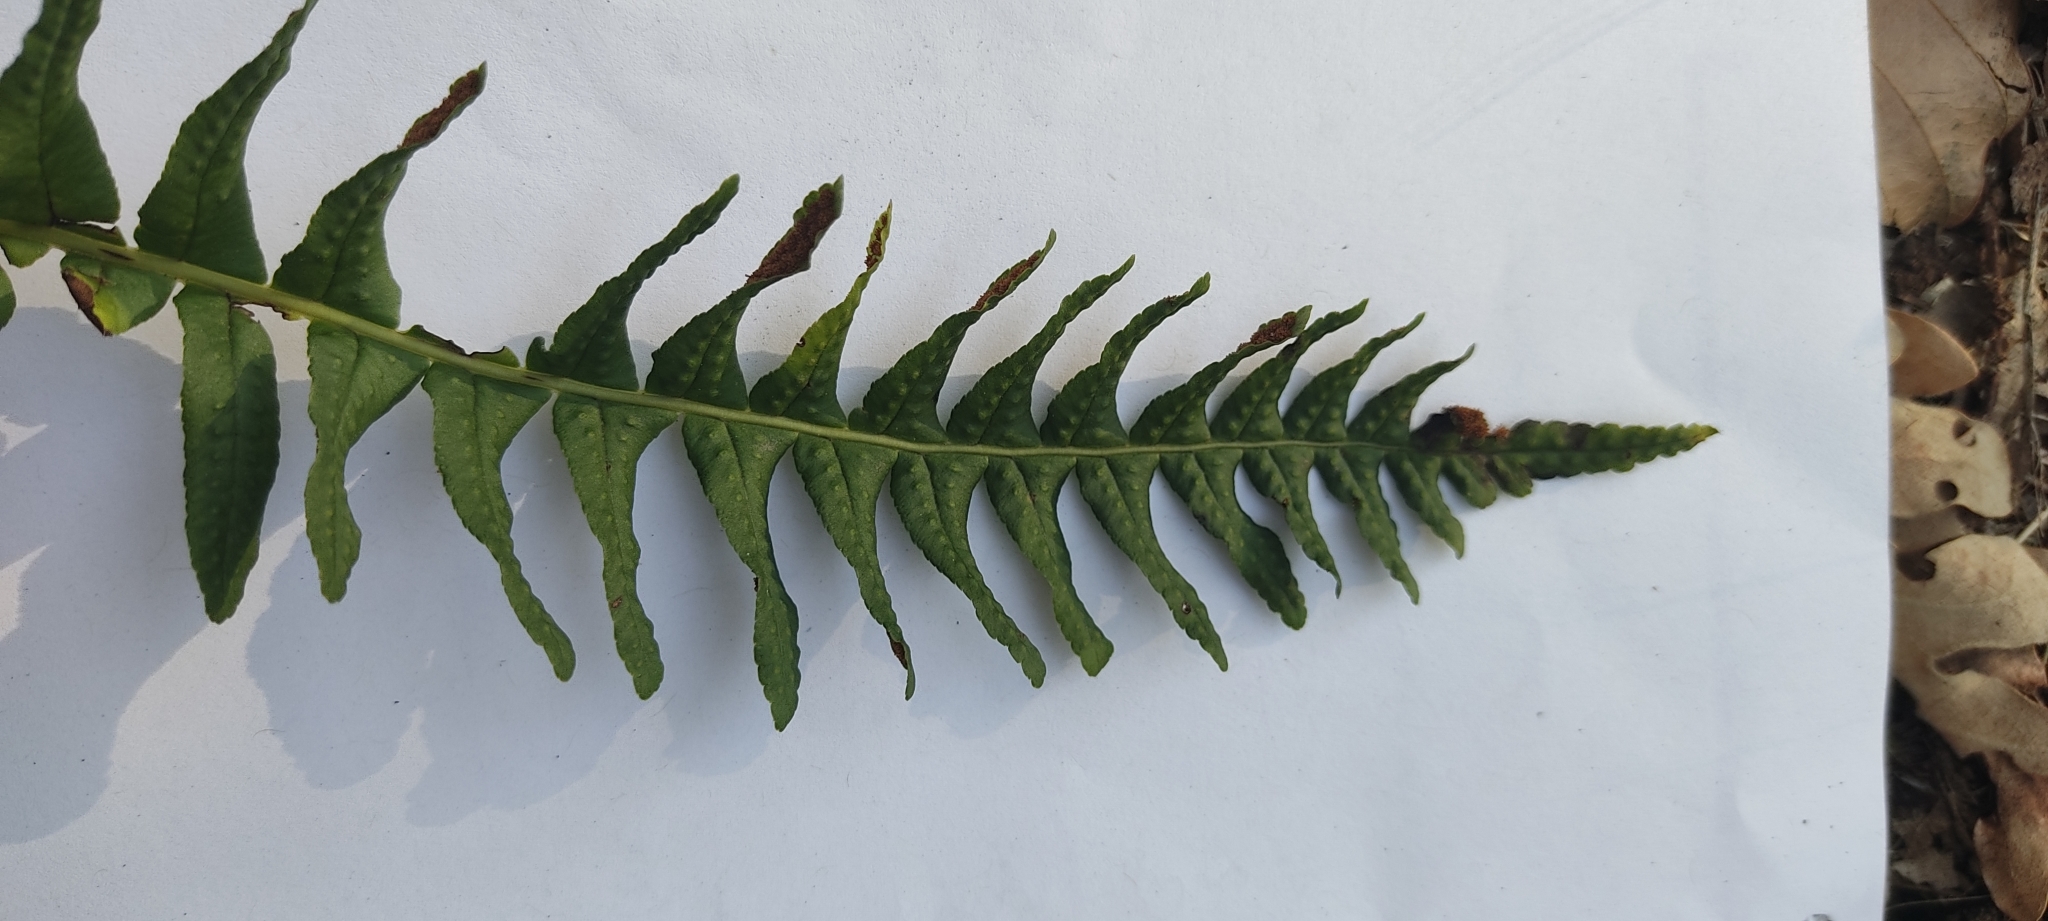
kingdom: Plantae
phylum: Tracheophyta
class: Polypodiopsida
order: Polypodiales
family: Polypodiaceae
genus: Polypodium
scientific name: Polypodium vulgare
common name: Common polypody
